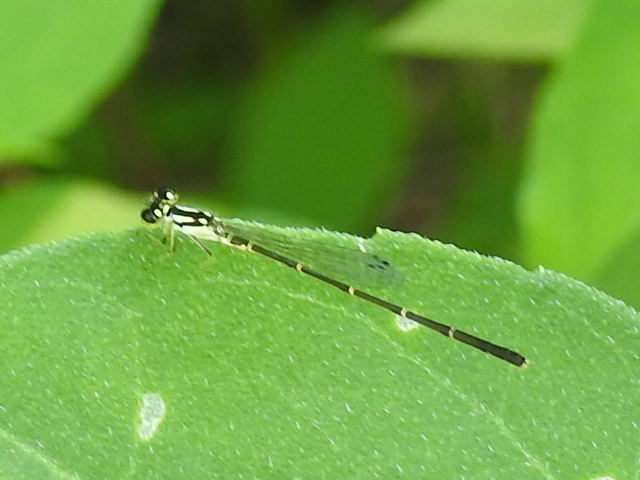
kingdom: Animalia
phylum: Arthropoda
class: Insecta
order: Odonata
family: Coenagrionidae
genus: Ischnura
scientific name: Ischnura posita
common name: Fragile forktail
